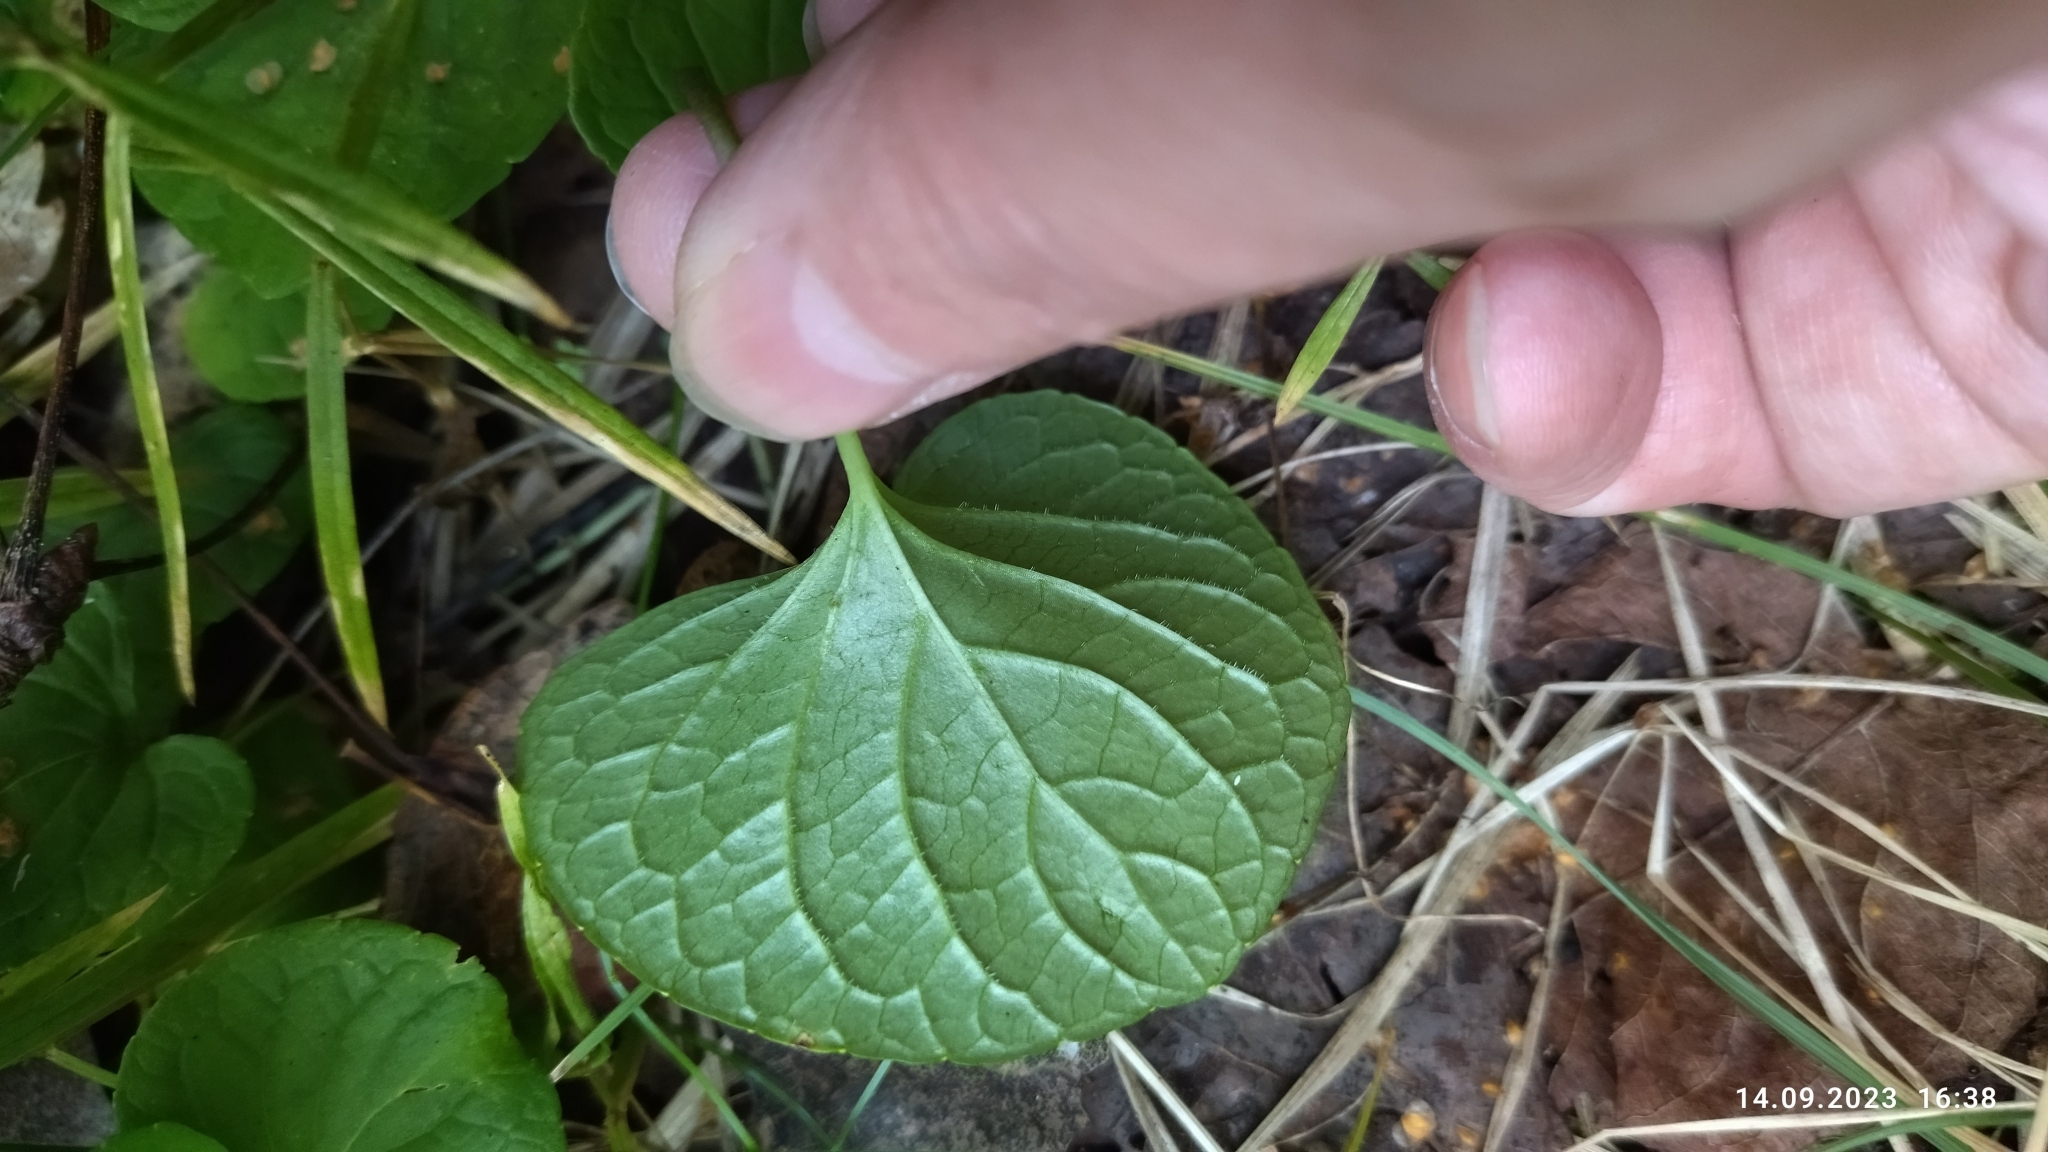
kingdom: Plantae
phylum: Tracheophyta
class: Magnoliopsida
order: Malpighiales
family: Violaceae
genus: Viola
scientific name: Viola epipsila
